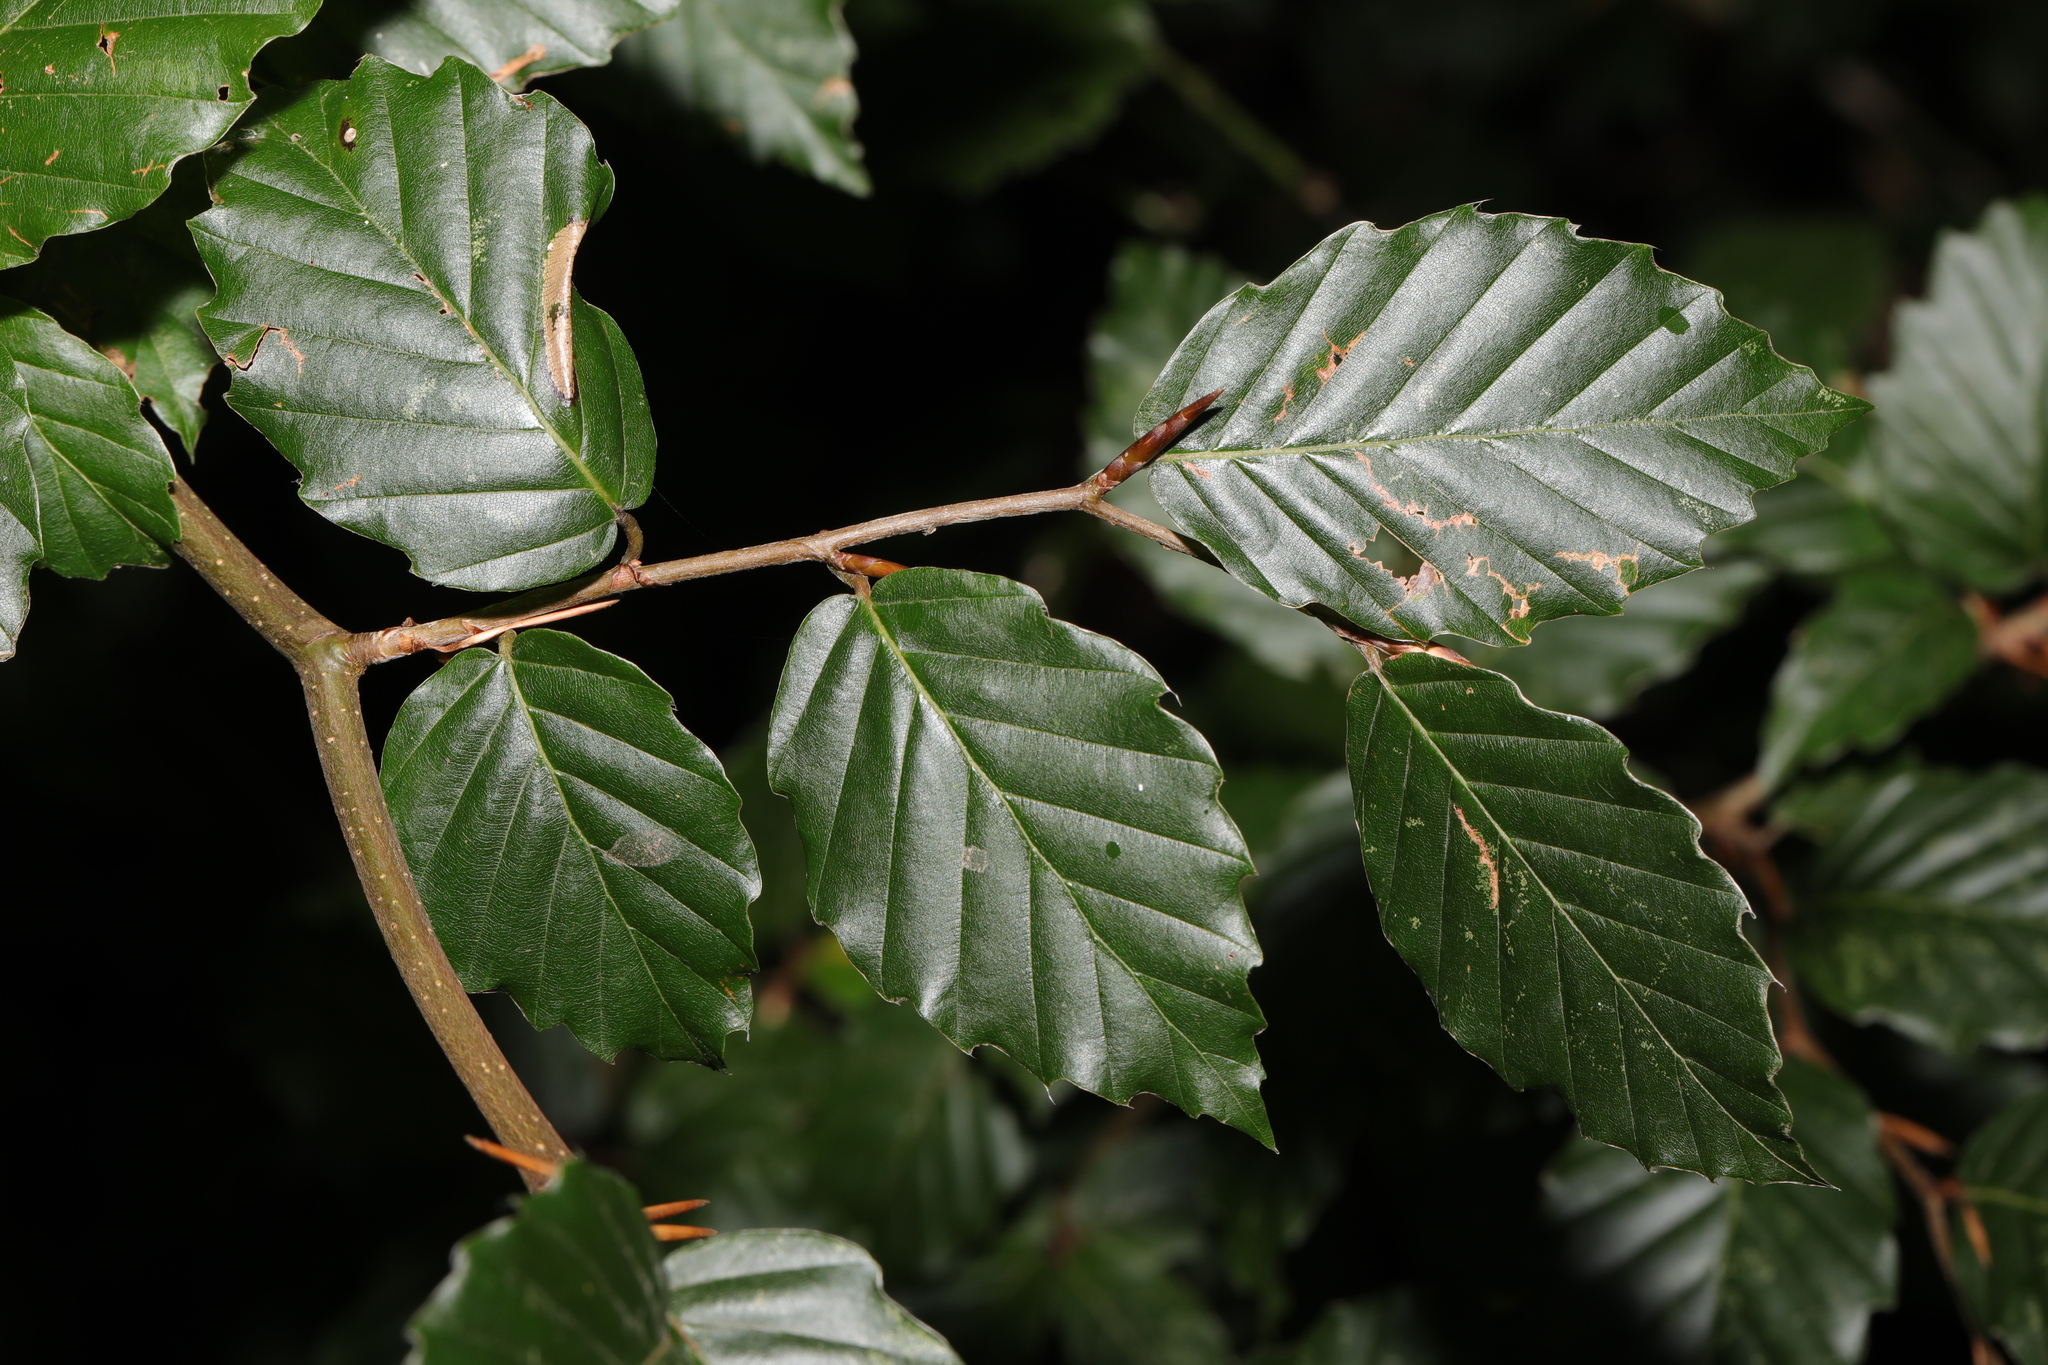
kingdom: Plantae
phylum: Tracheophyta
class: Magnoliopsida
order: Fagales
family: Fagaceae
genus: Fagus
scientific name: Fagus sylvatica
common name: Beech
